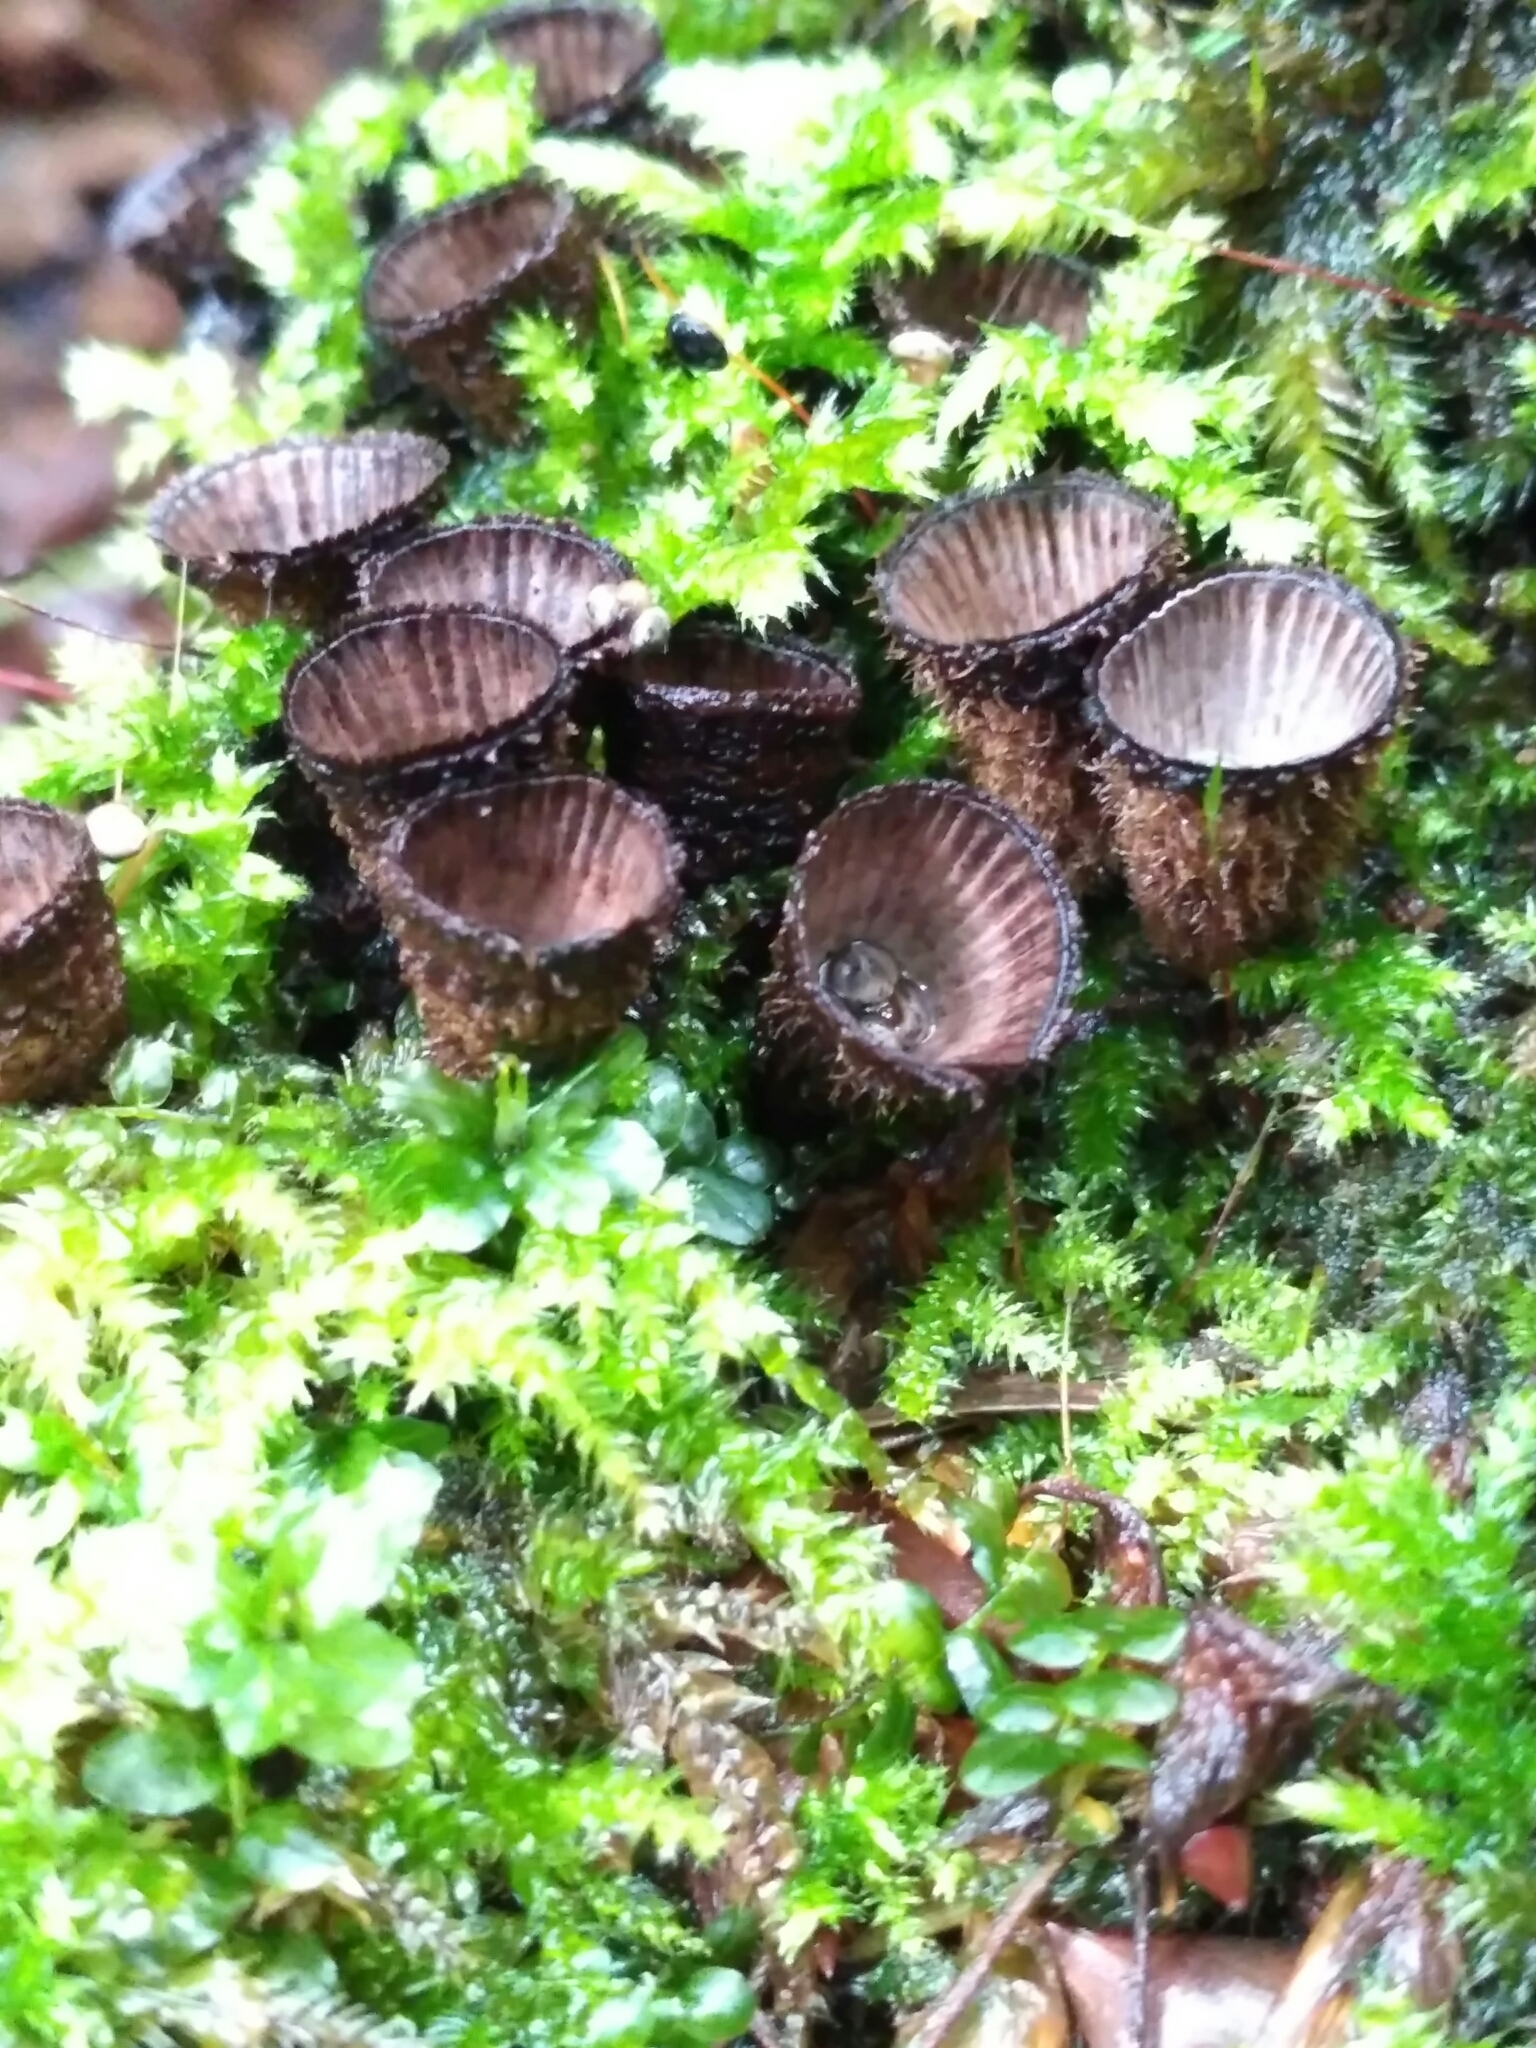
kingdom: Fungi
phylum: Basidiomycota
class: Agaricomycetes
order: Agaricales
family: Agaricaceae
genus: Cyathus
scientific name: Cyathus striatus
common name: Fluted bird's nest
